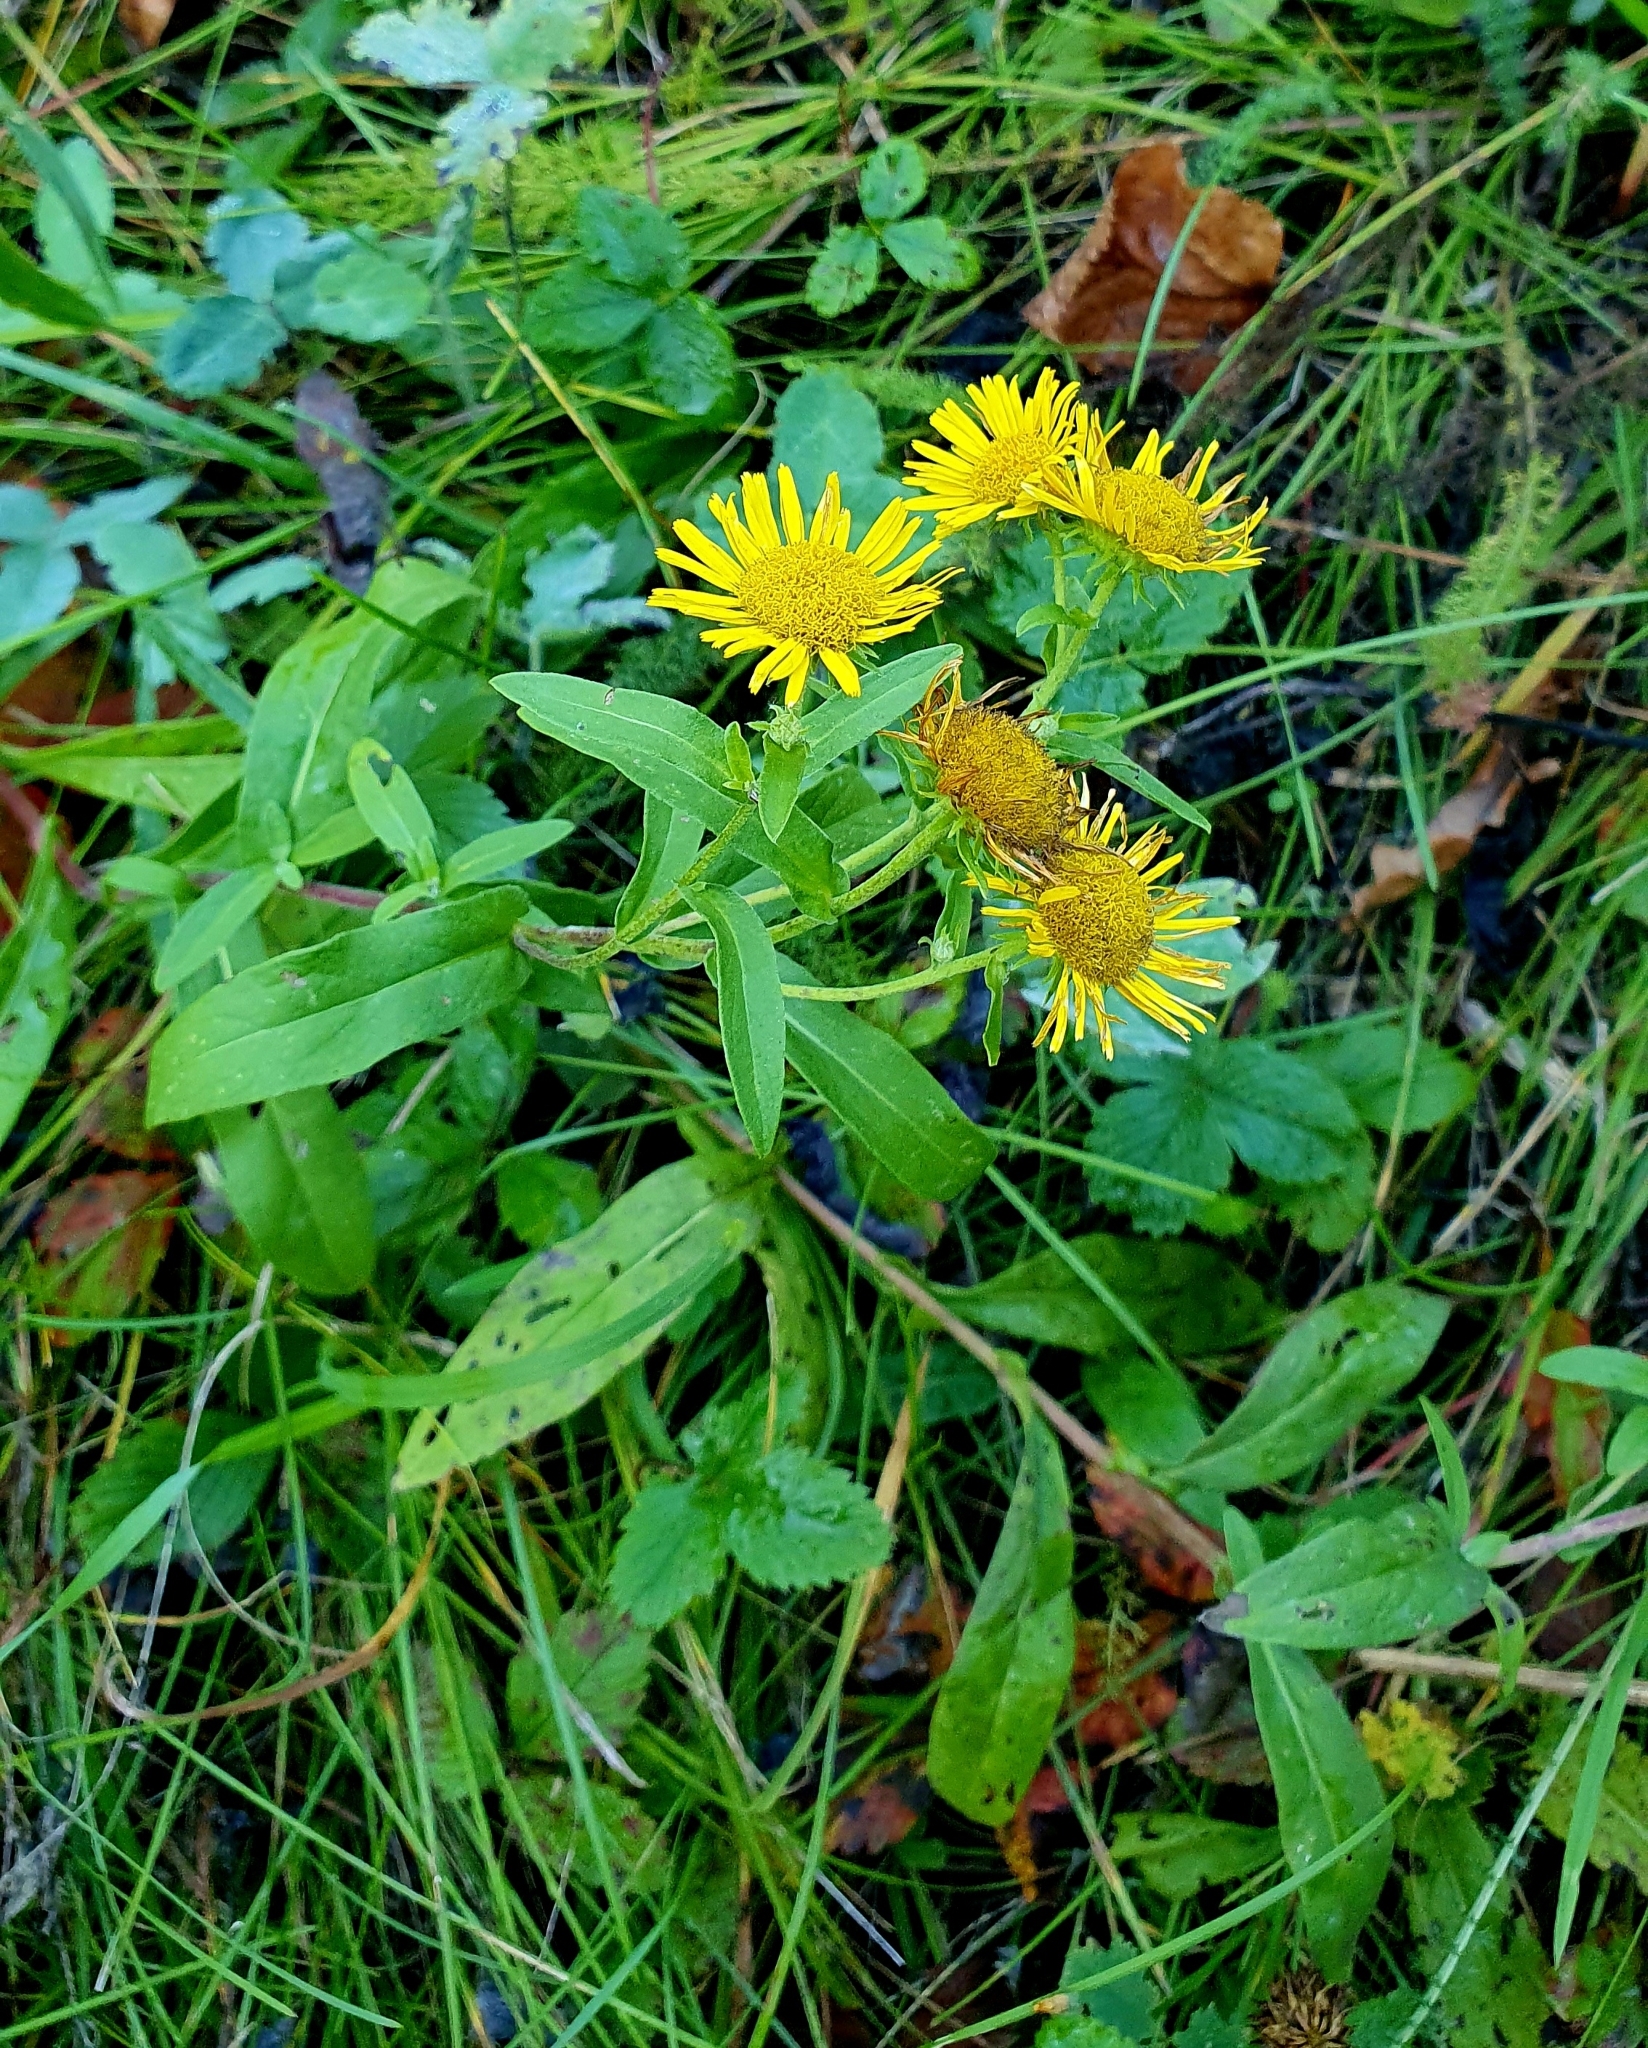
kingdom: Plantae
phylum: Tracheophyta
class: Magnoliopsida
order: Asterales
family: Asteraceae
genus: Pentanema
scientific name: Pentanema britannicum
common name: British elecampane
